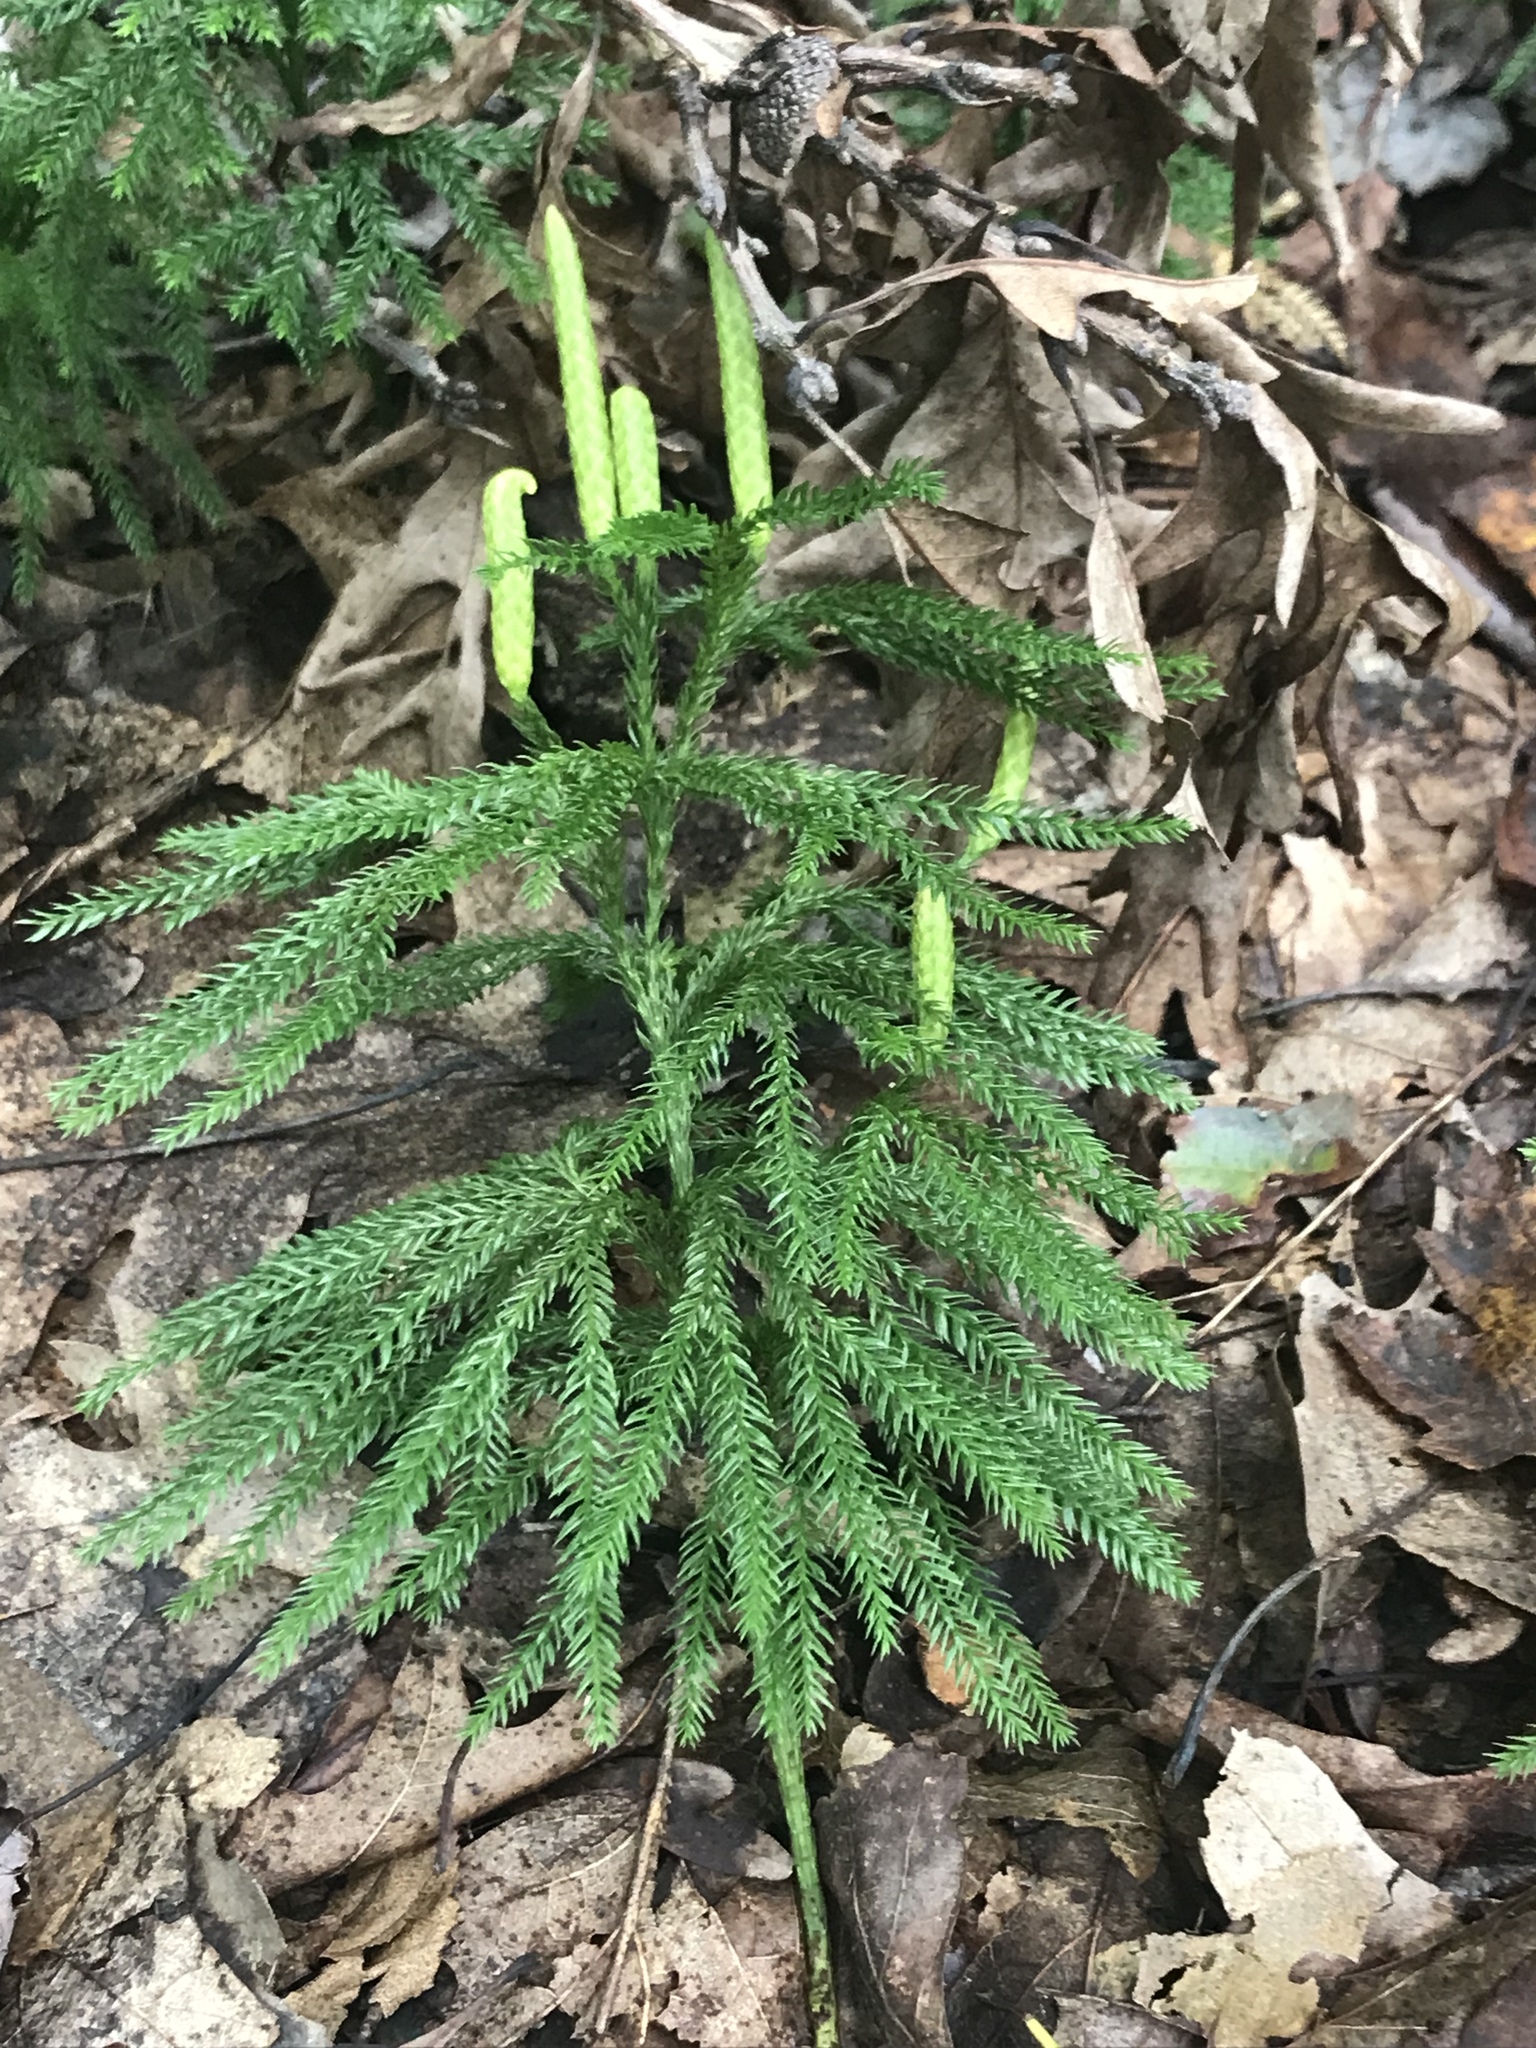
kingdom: Plantae
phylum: Tracheophyta
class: Lycopodiopsida
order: Lycopodiales
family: Lycopodiaceae
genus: Dendrolycopodium
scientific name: Dendrolycopodium obscurum
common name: Common ground-pine
